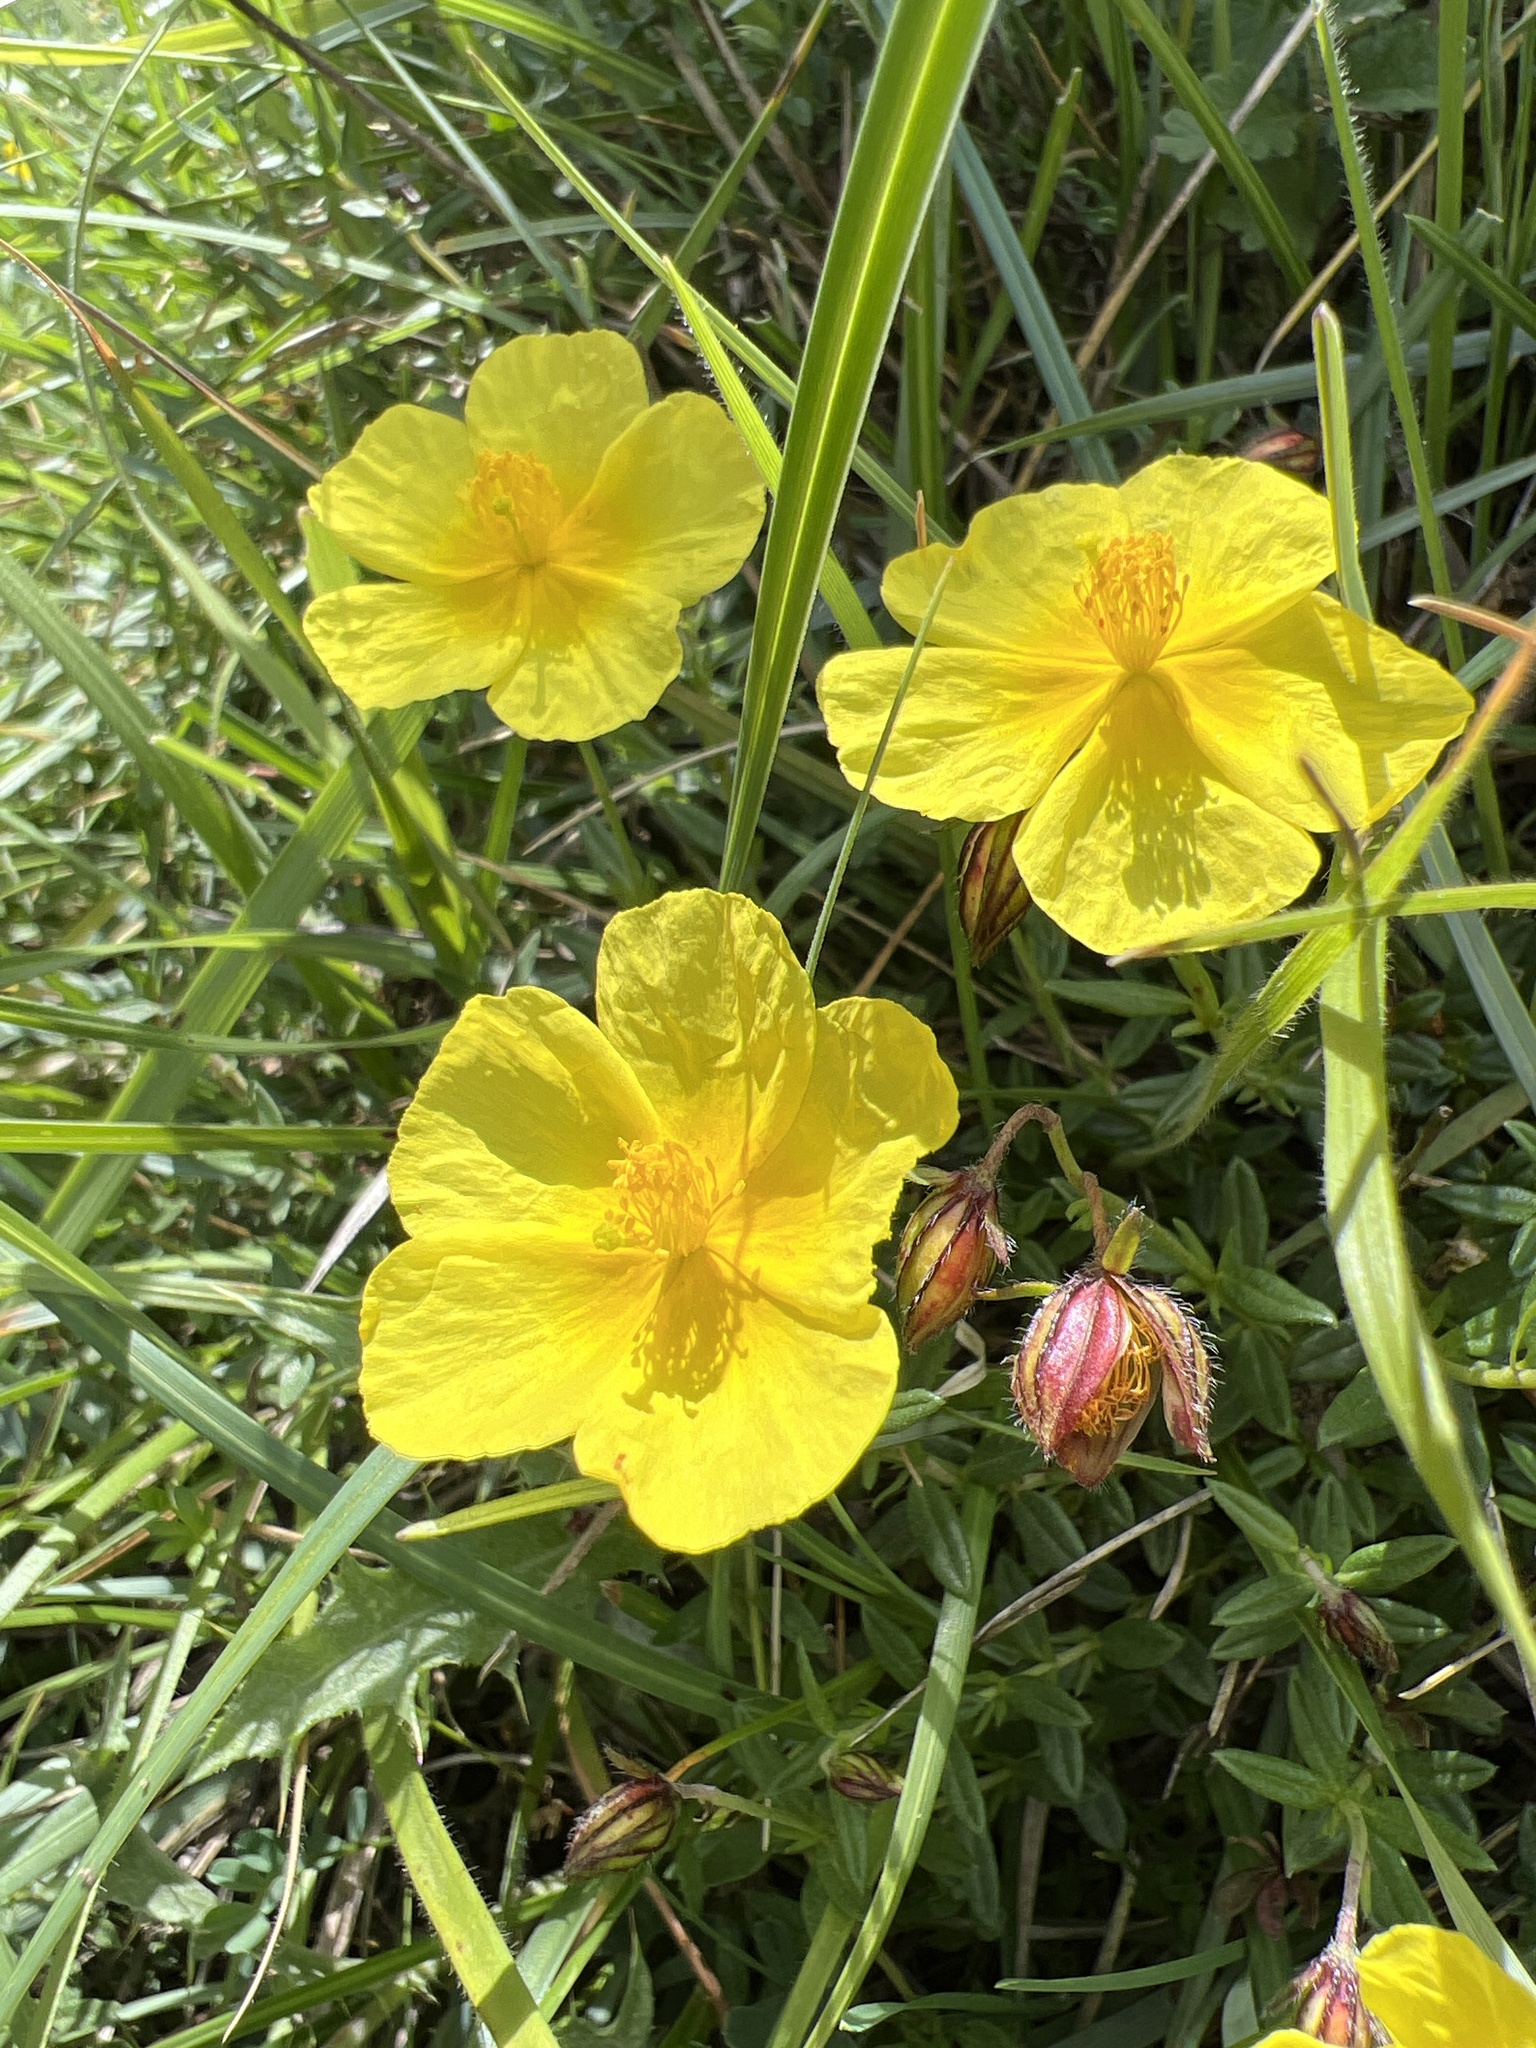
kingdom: Plantae
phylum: Tracheophyta
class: Magnoliopsida
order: Malvales
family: Cistaceae
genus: Helianthemum
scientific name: Helianthemum croceum
